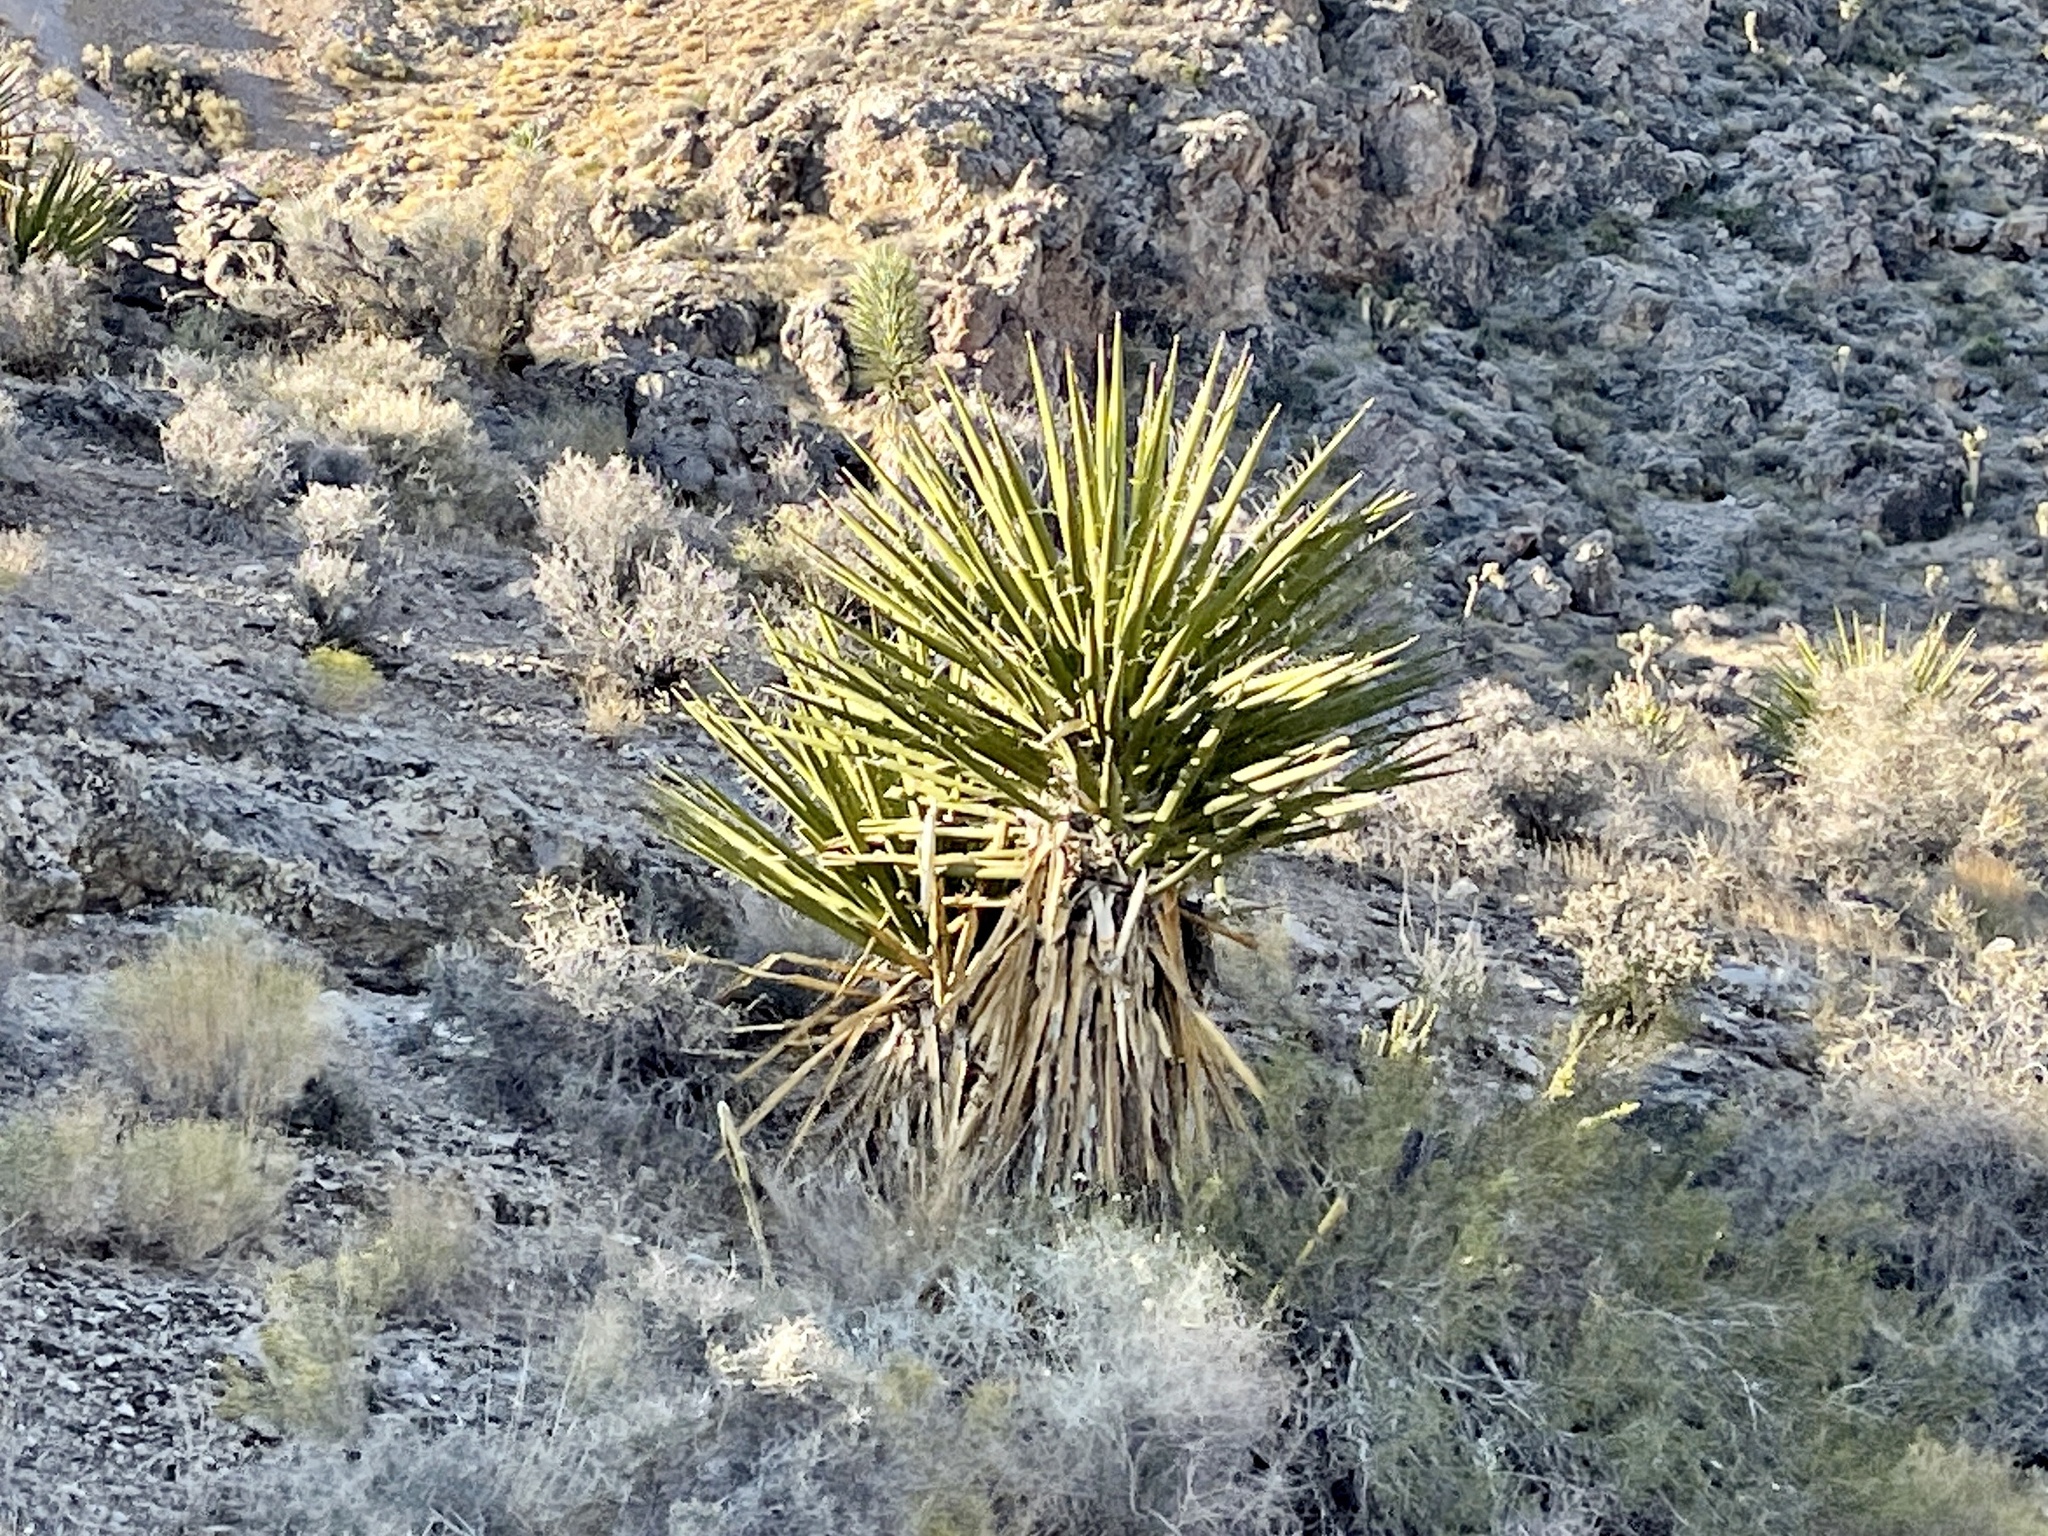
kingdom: Plantae
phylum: Tracheophyta
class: Liliopsida
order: Asparagales
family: Asparagaceae
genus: Yucca
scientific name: Yucca schidigera
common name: Mojave yucca
